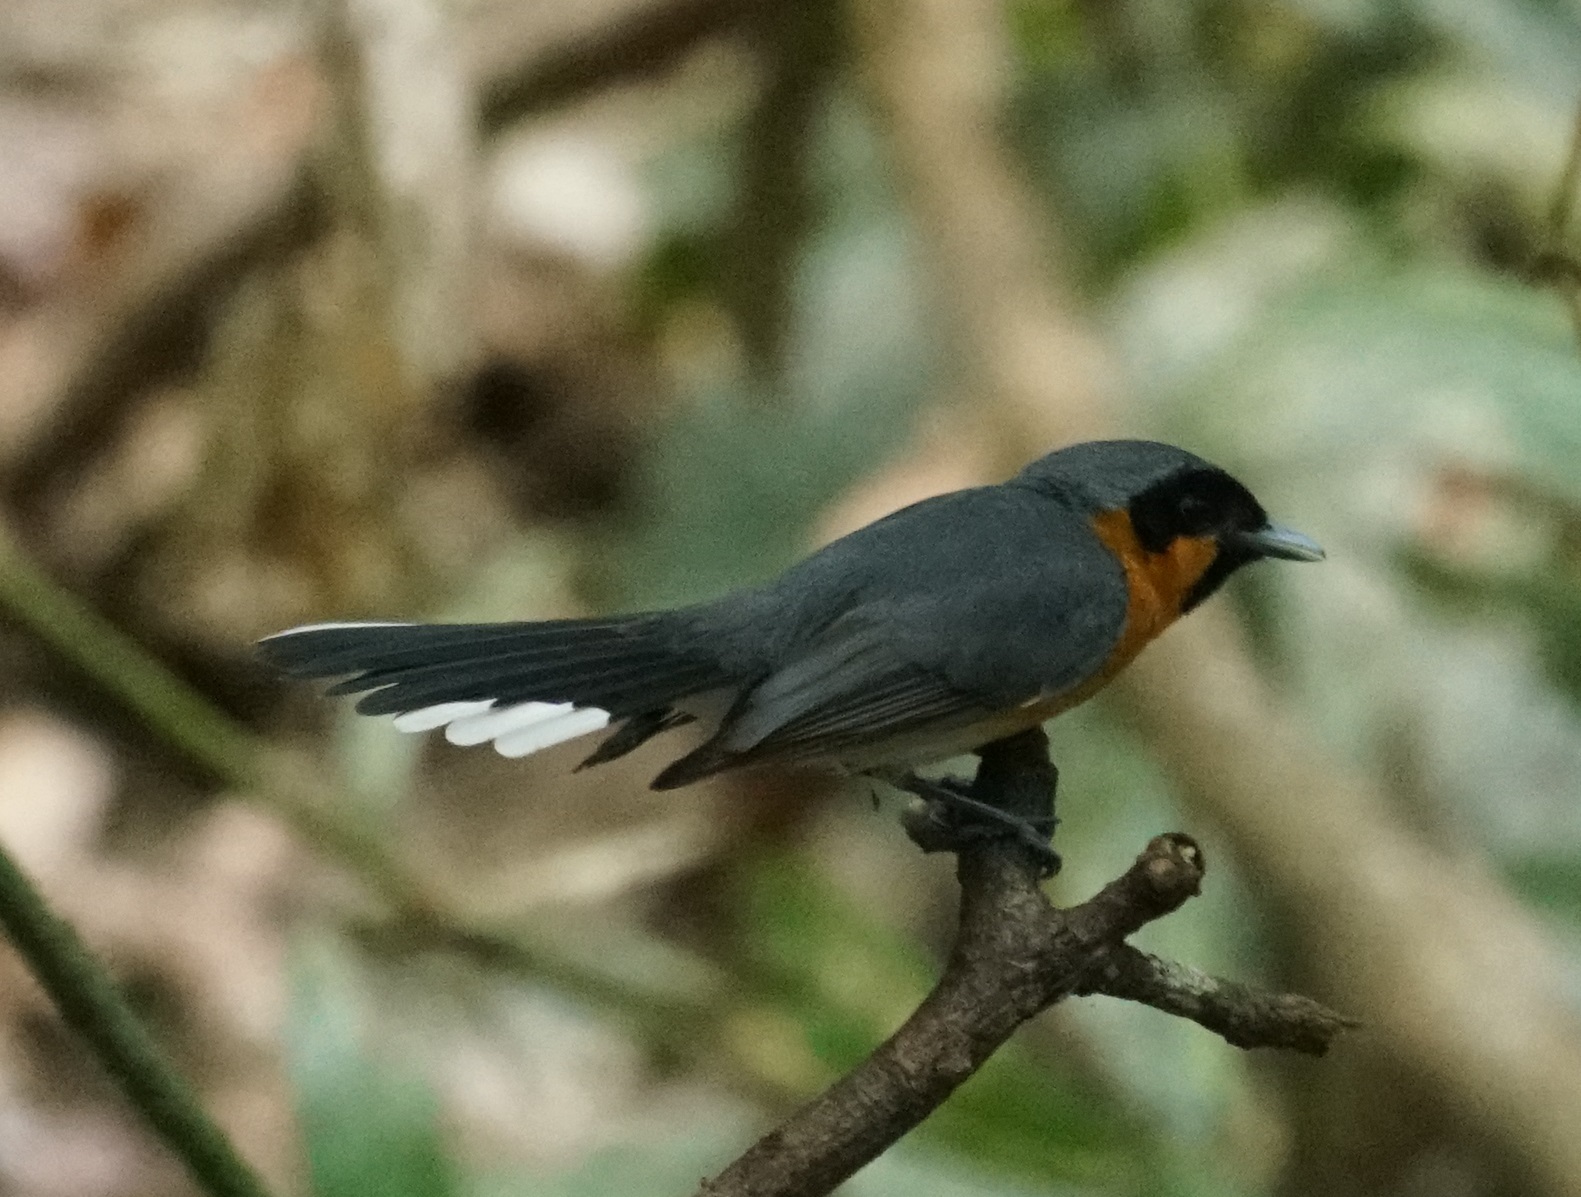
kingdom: Animalia
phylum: Chordata
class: Aves
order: Passeriformes
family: Monarchidae
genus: Symposiachrus
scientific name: Symposiachrus trivirgatus
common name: Spectacled monarch
